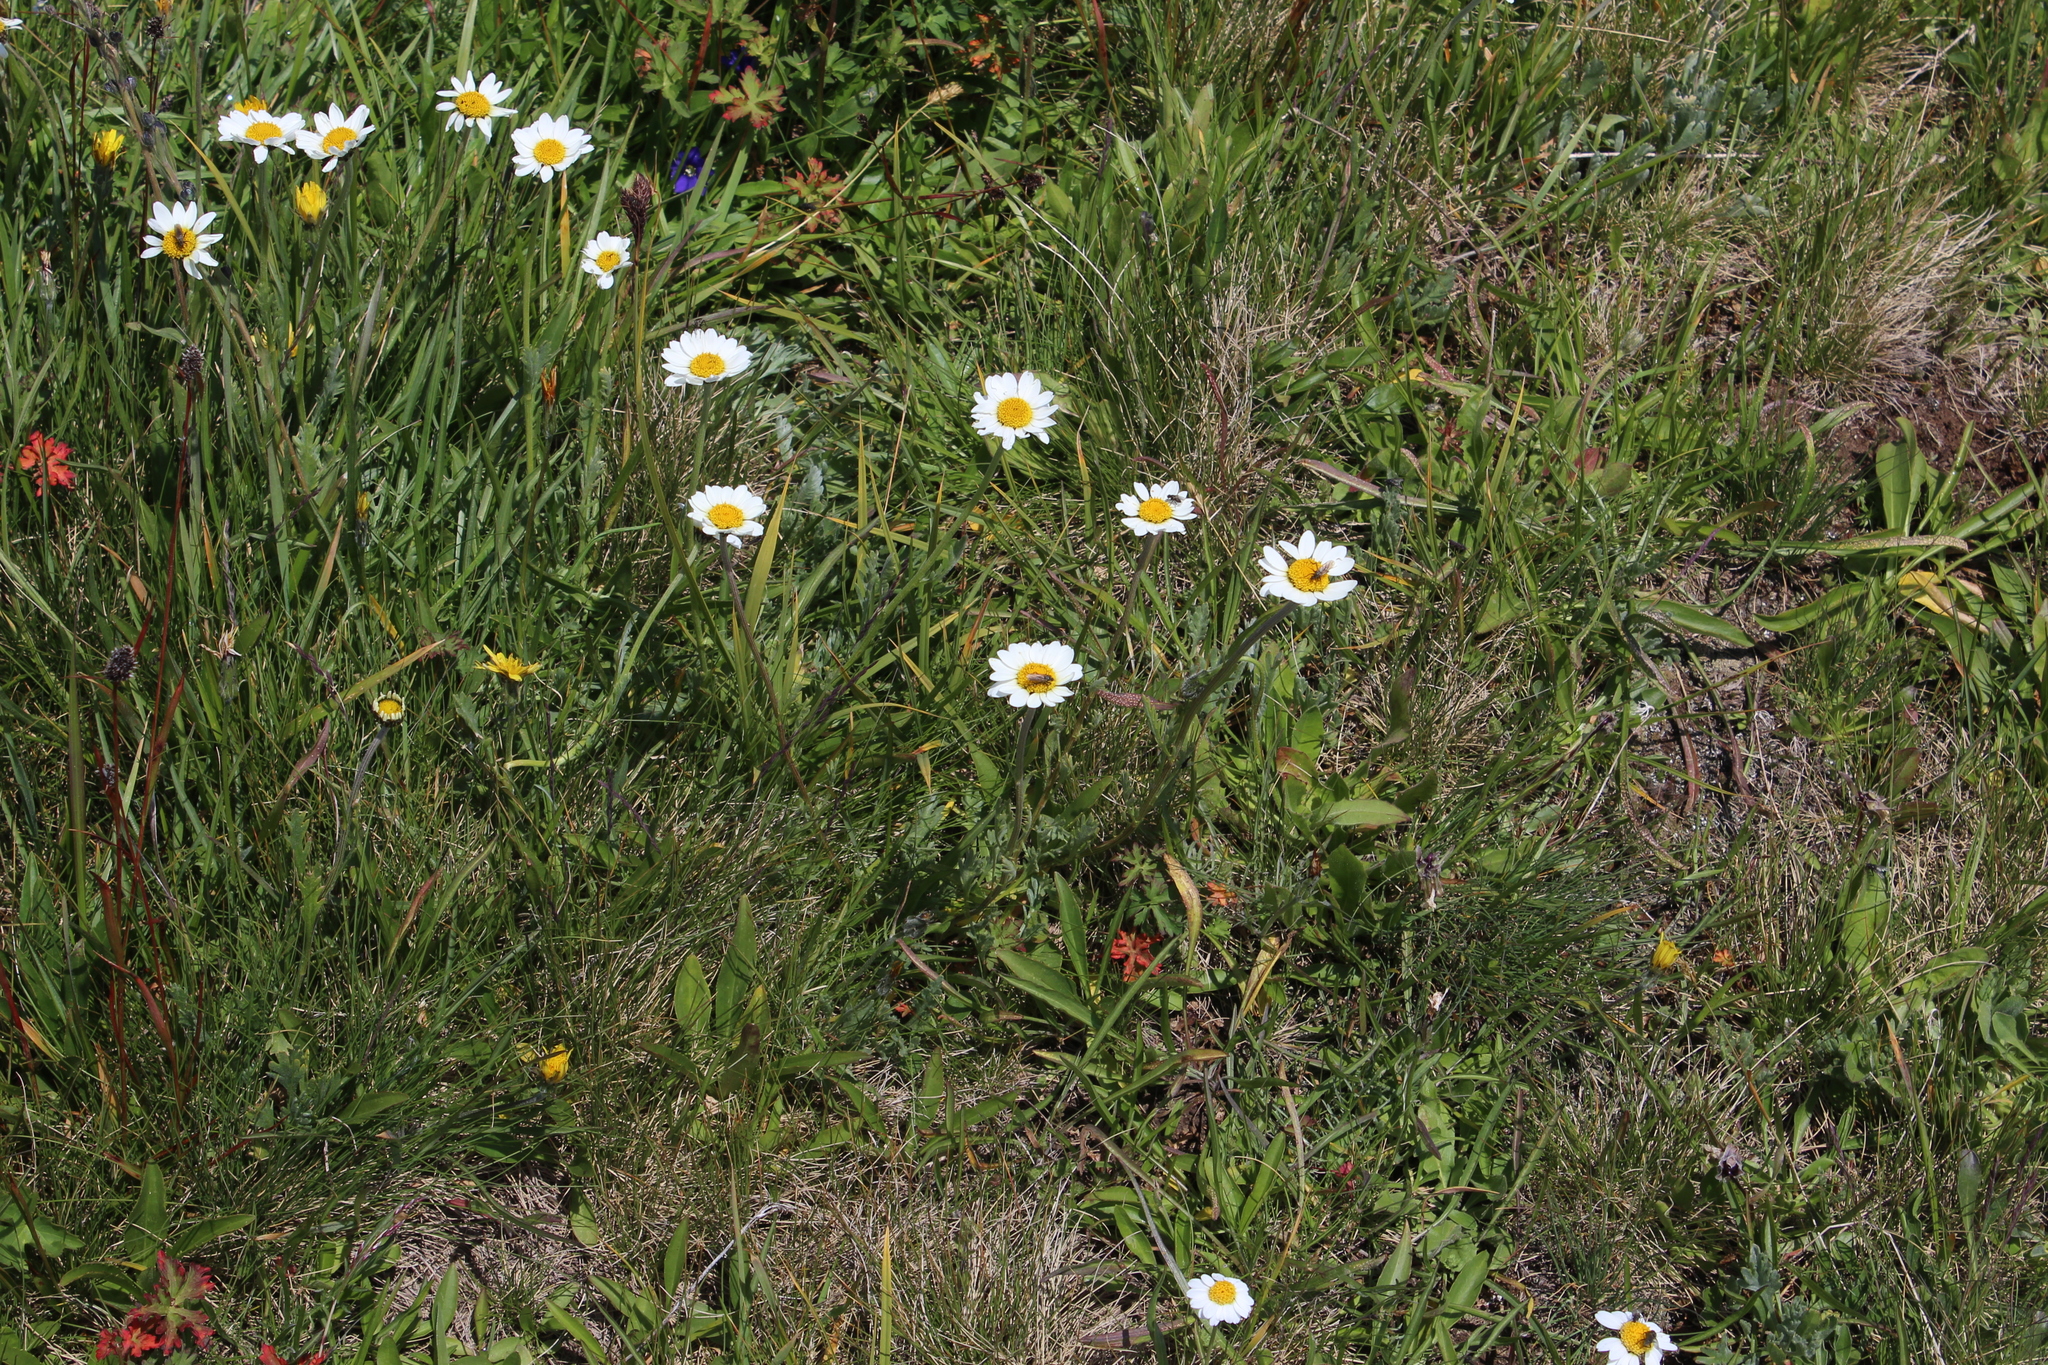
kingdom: Plantae
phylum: Tracheophyta
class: Magnoliopsida
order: Asterales
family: Asteraceae
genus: Anthemis
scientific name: Anthemis cretica
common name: Mountain dog-daisy
